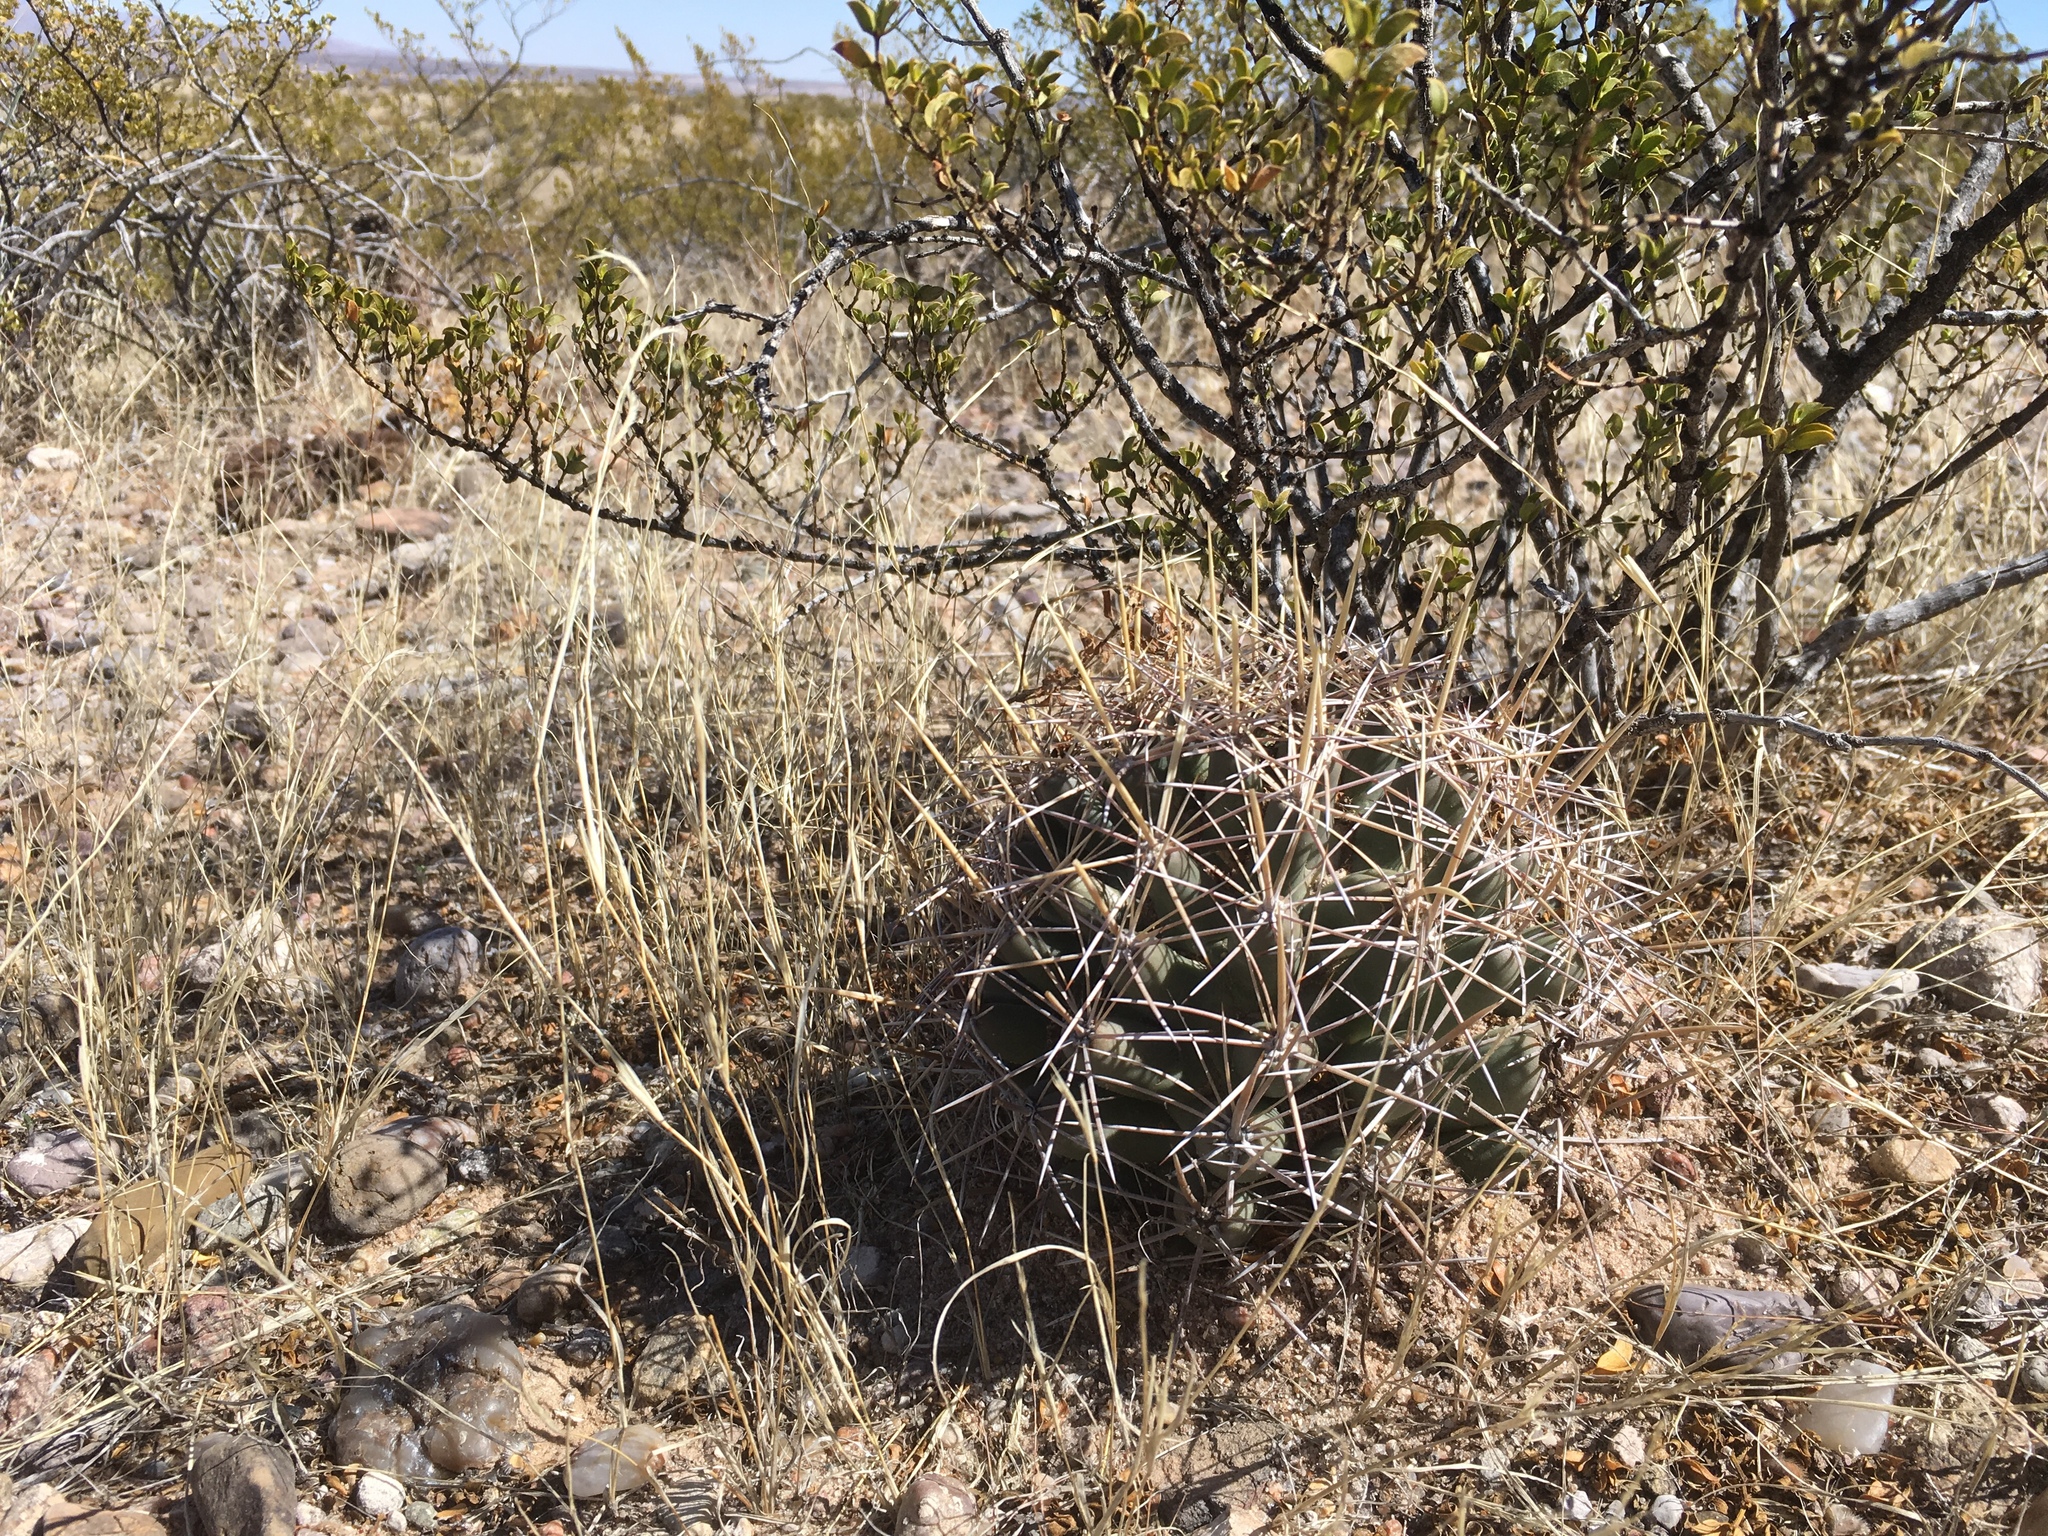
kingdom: Plantae
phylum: Tracheophyta
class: Magnoliopsida
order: Caryophyllales
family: Cactaceae
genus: Coryphantha
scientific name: Coryphantha robustispina
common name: Pima pineapple cactus
